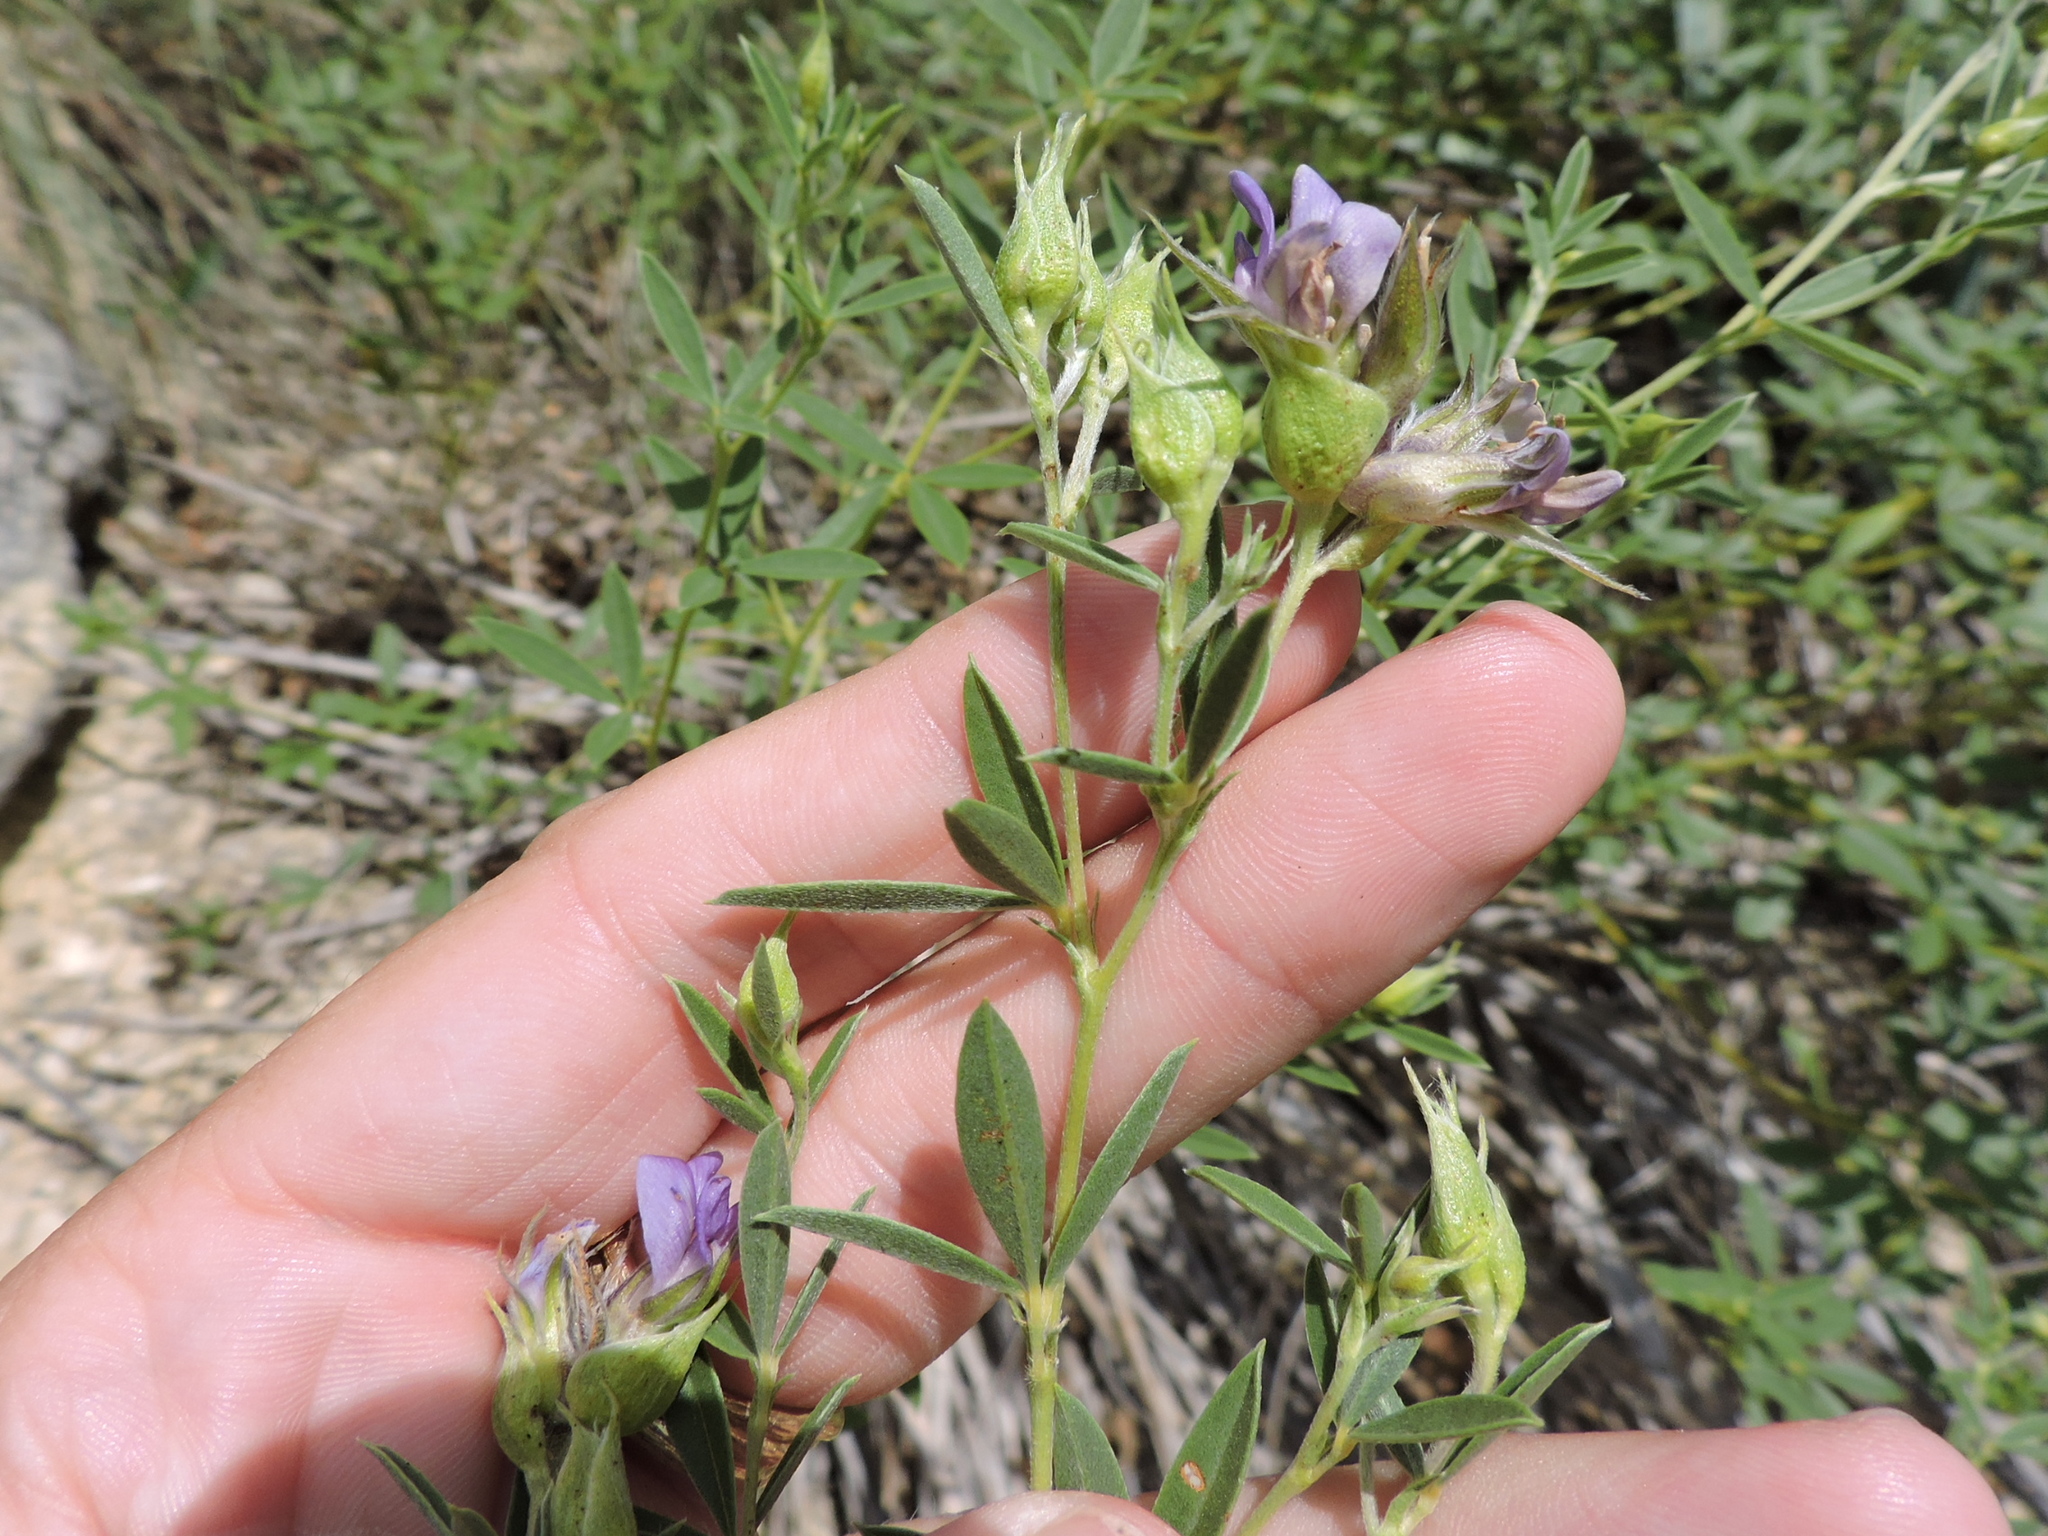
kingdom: Plantae
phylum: Tracheophyta
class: Magnoliopsida
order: Fabales
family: Fabaceae
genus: Pediomelum
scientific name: Pediomelum reverchonii
